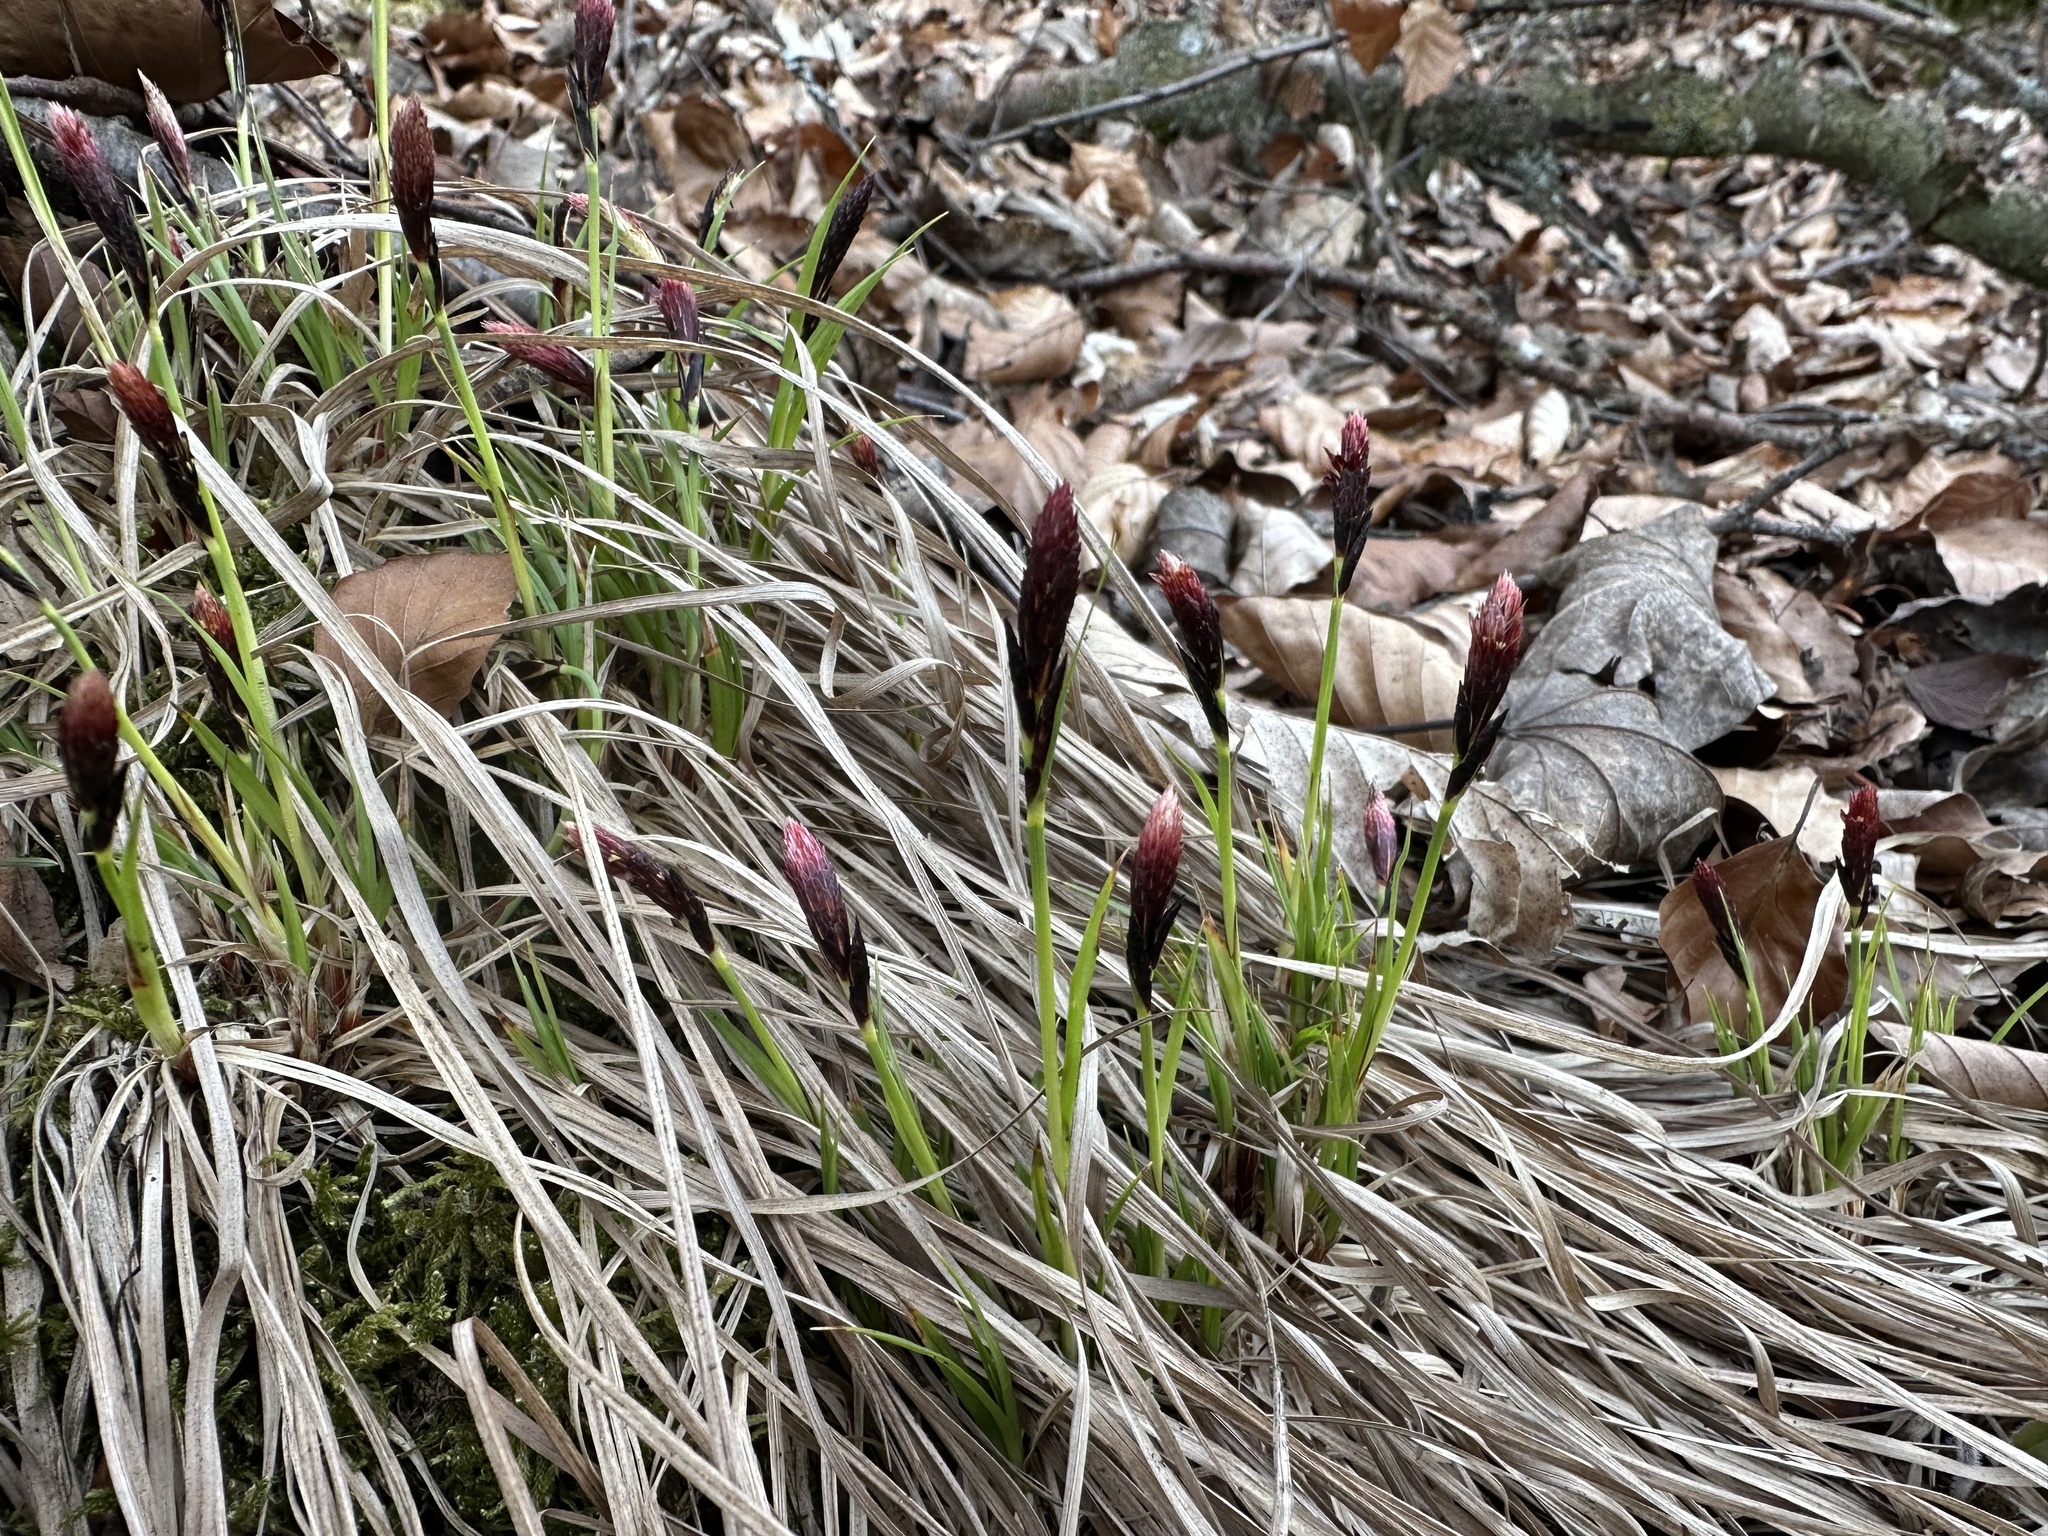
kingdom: Plantae
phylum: Tracheophyta
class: Liliopsida
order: Poales
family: Cyperaceae
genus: Carex
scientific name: Carex montana
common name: Soft-leaved sedge
